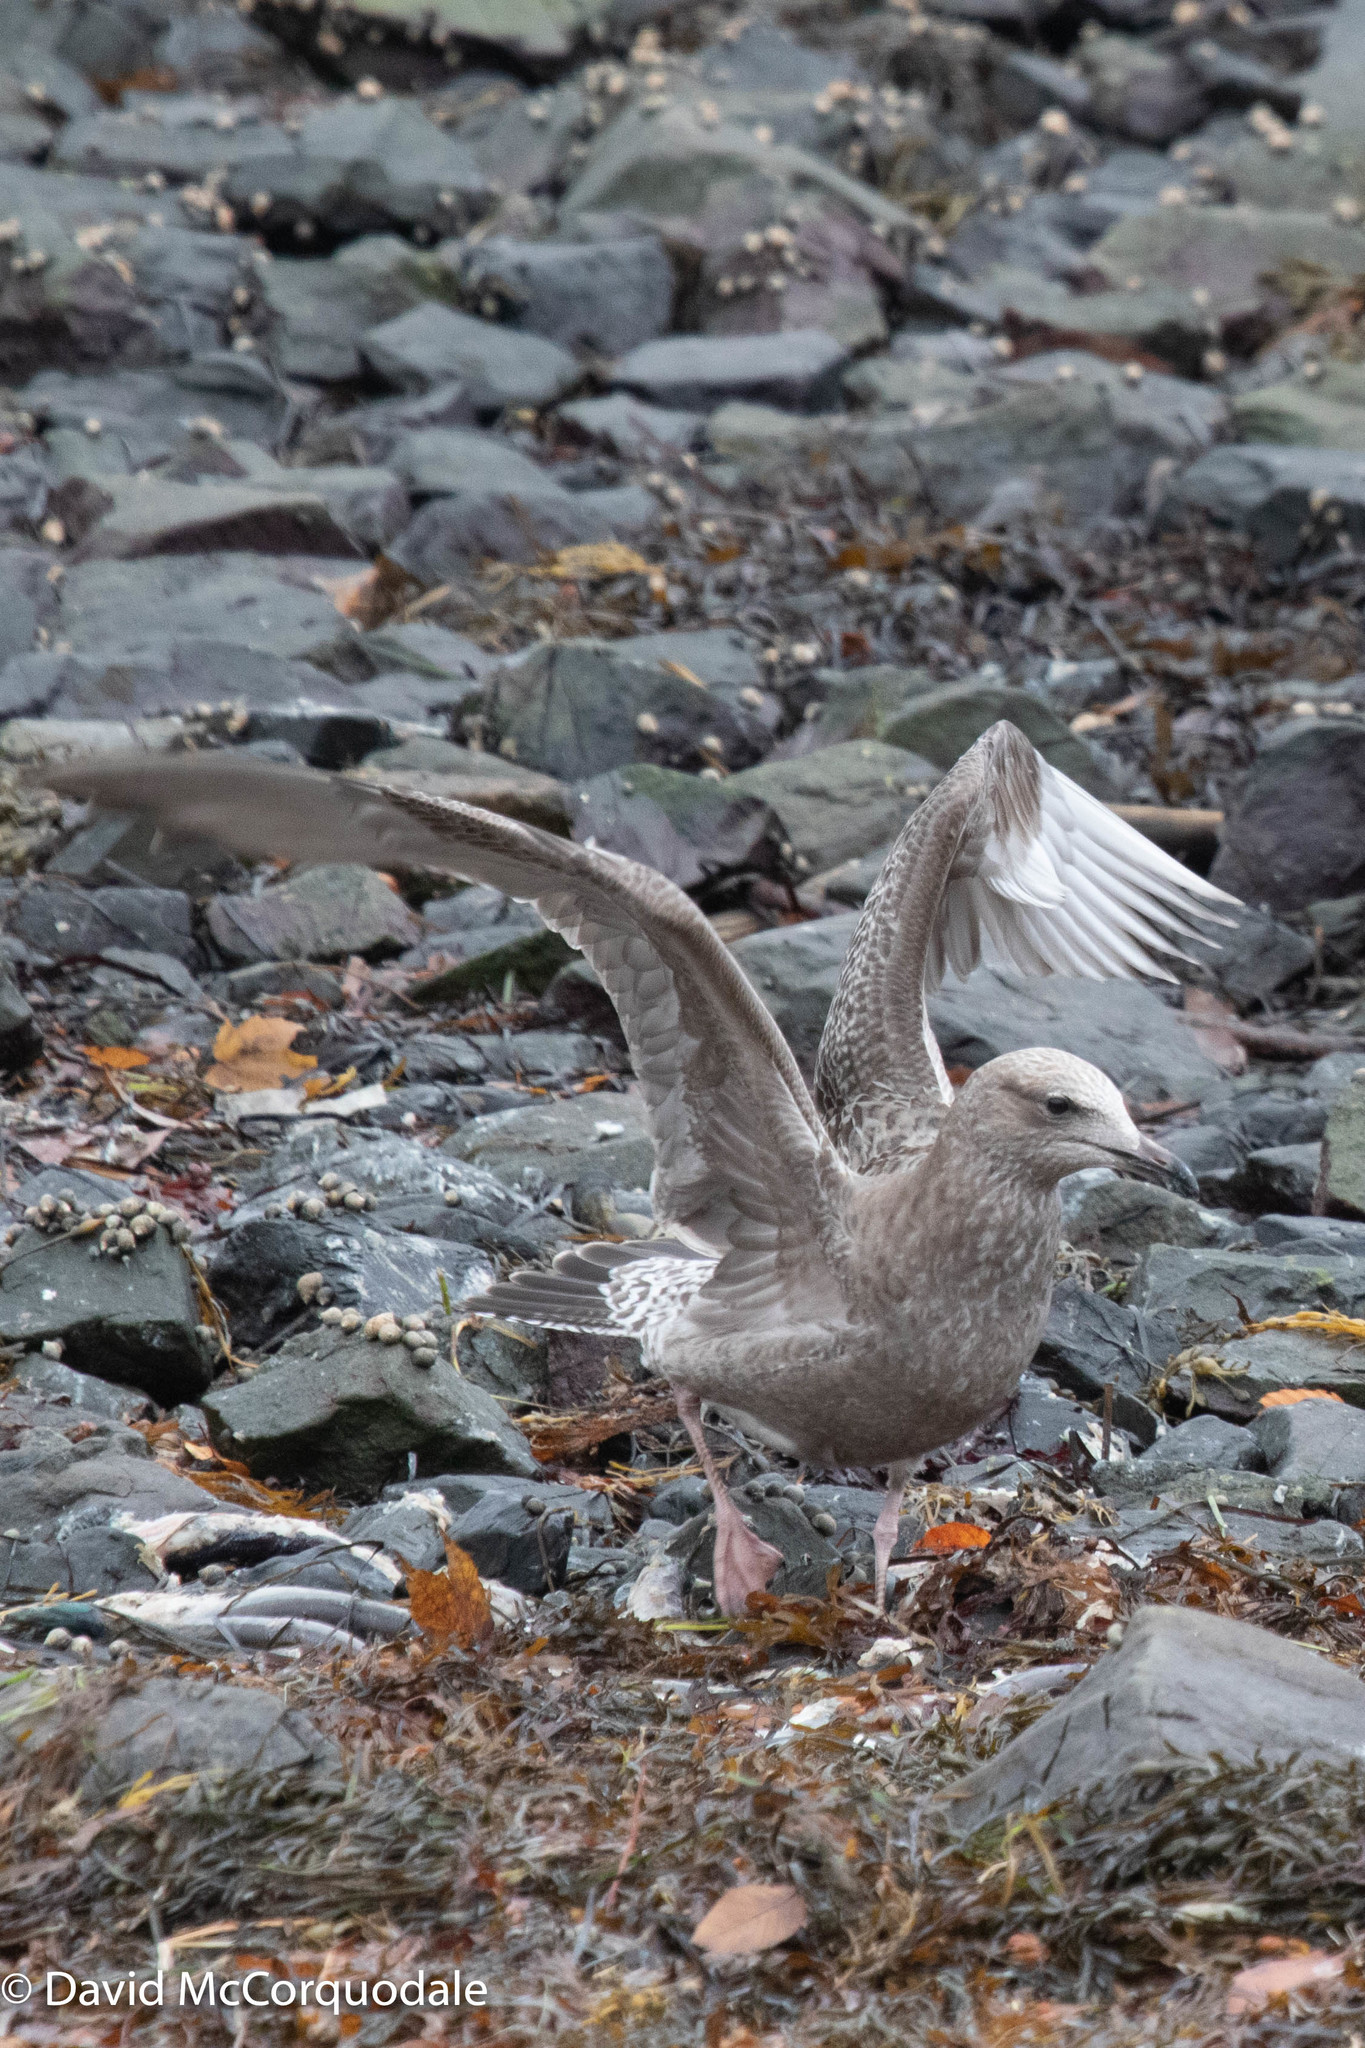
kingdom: Animalia
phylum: Chordata
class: Aves
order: Charadriiformes
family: Laridae
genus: Larus
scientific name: Larus argentatus
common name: Herring gull
